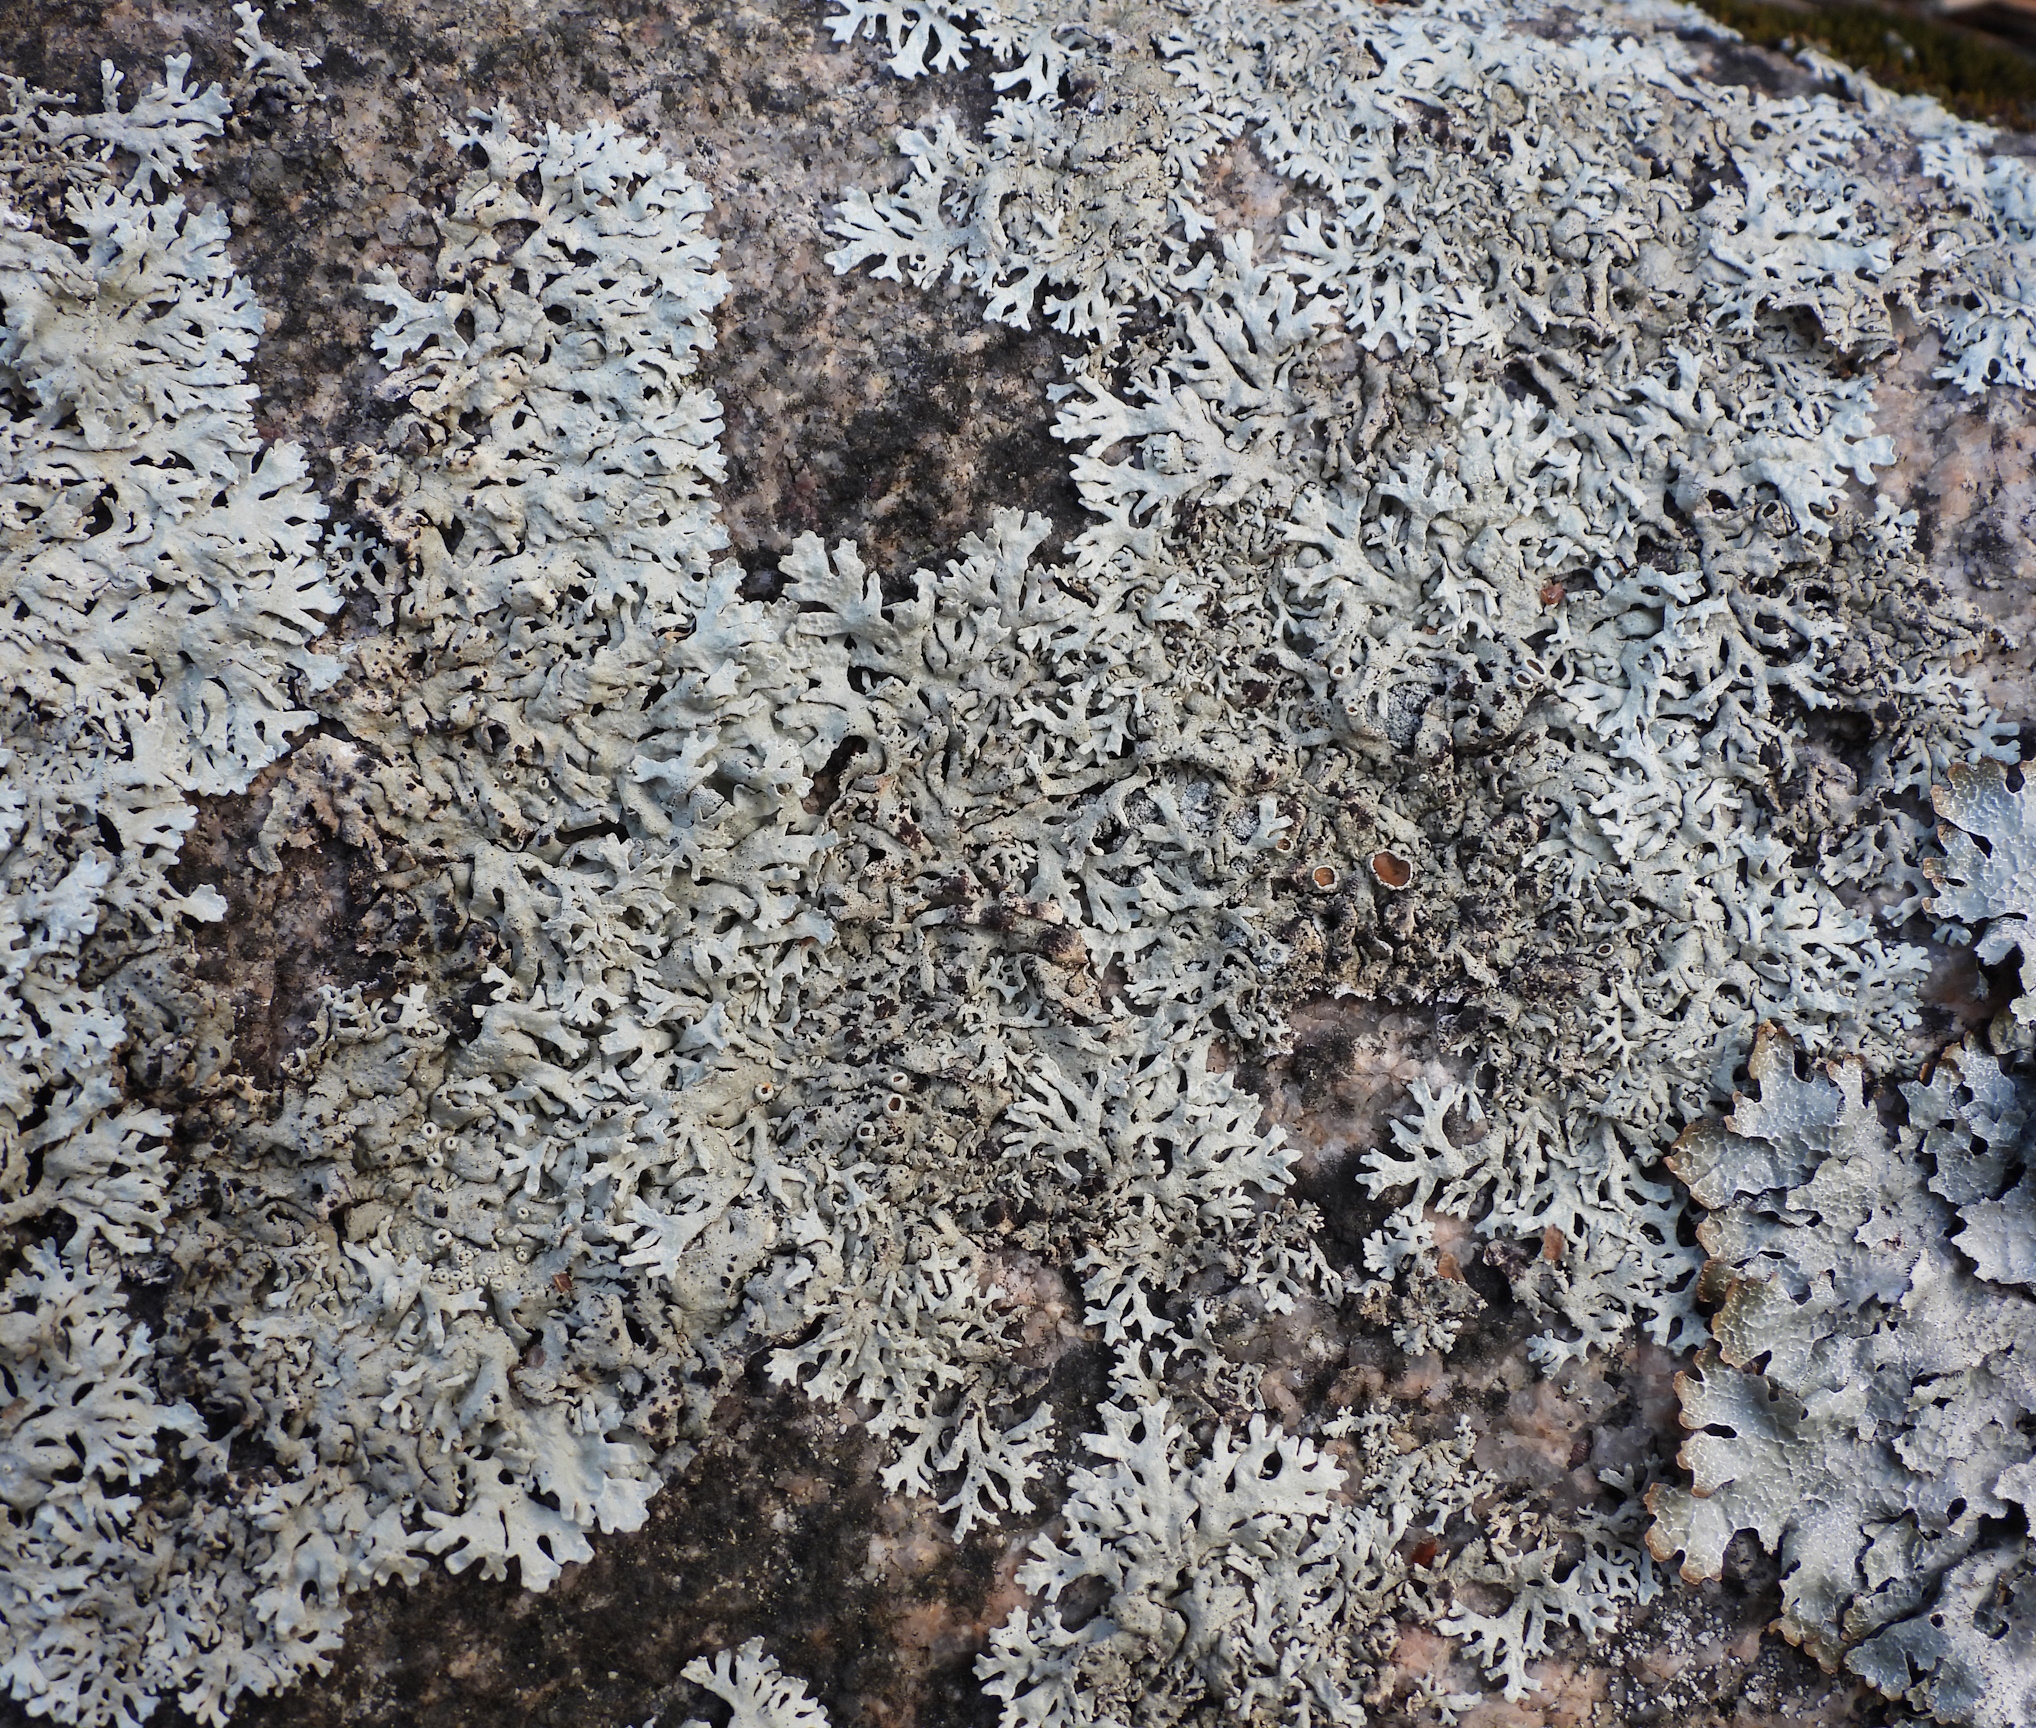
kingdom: Fungi
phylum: Ascomycota
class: Lecanoromycetes
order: Lecanorales
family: Parmeliaceae
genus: Arctoparmelia
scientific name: Arctoparmelia centrifuga
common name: Concentric ring lichen
